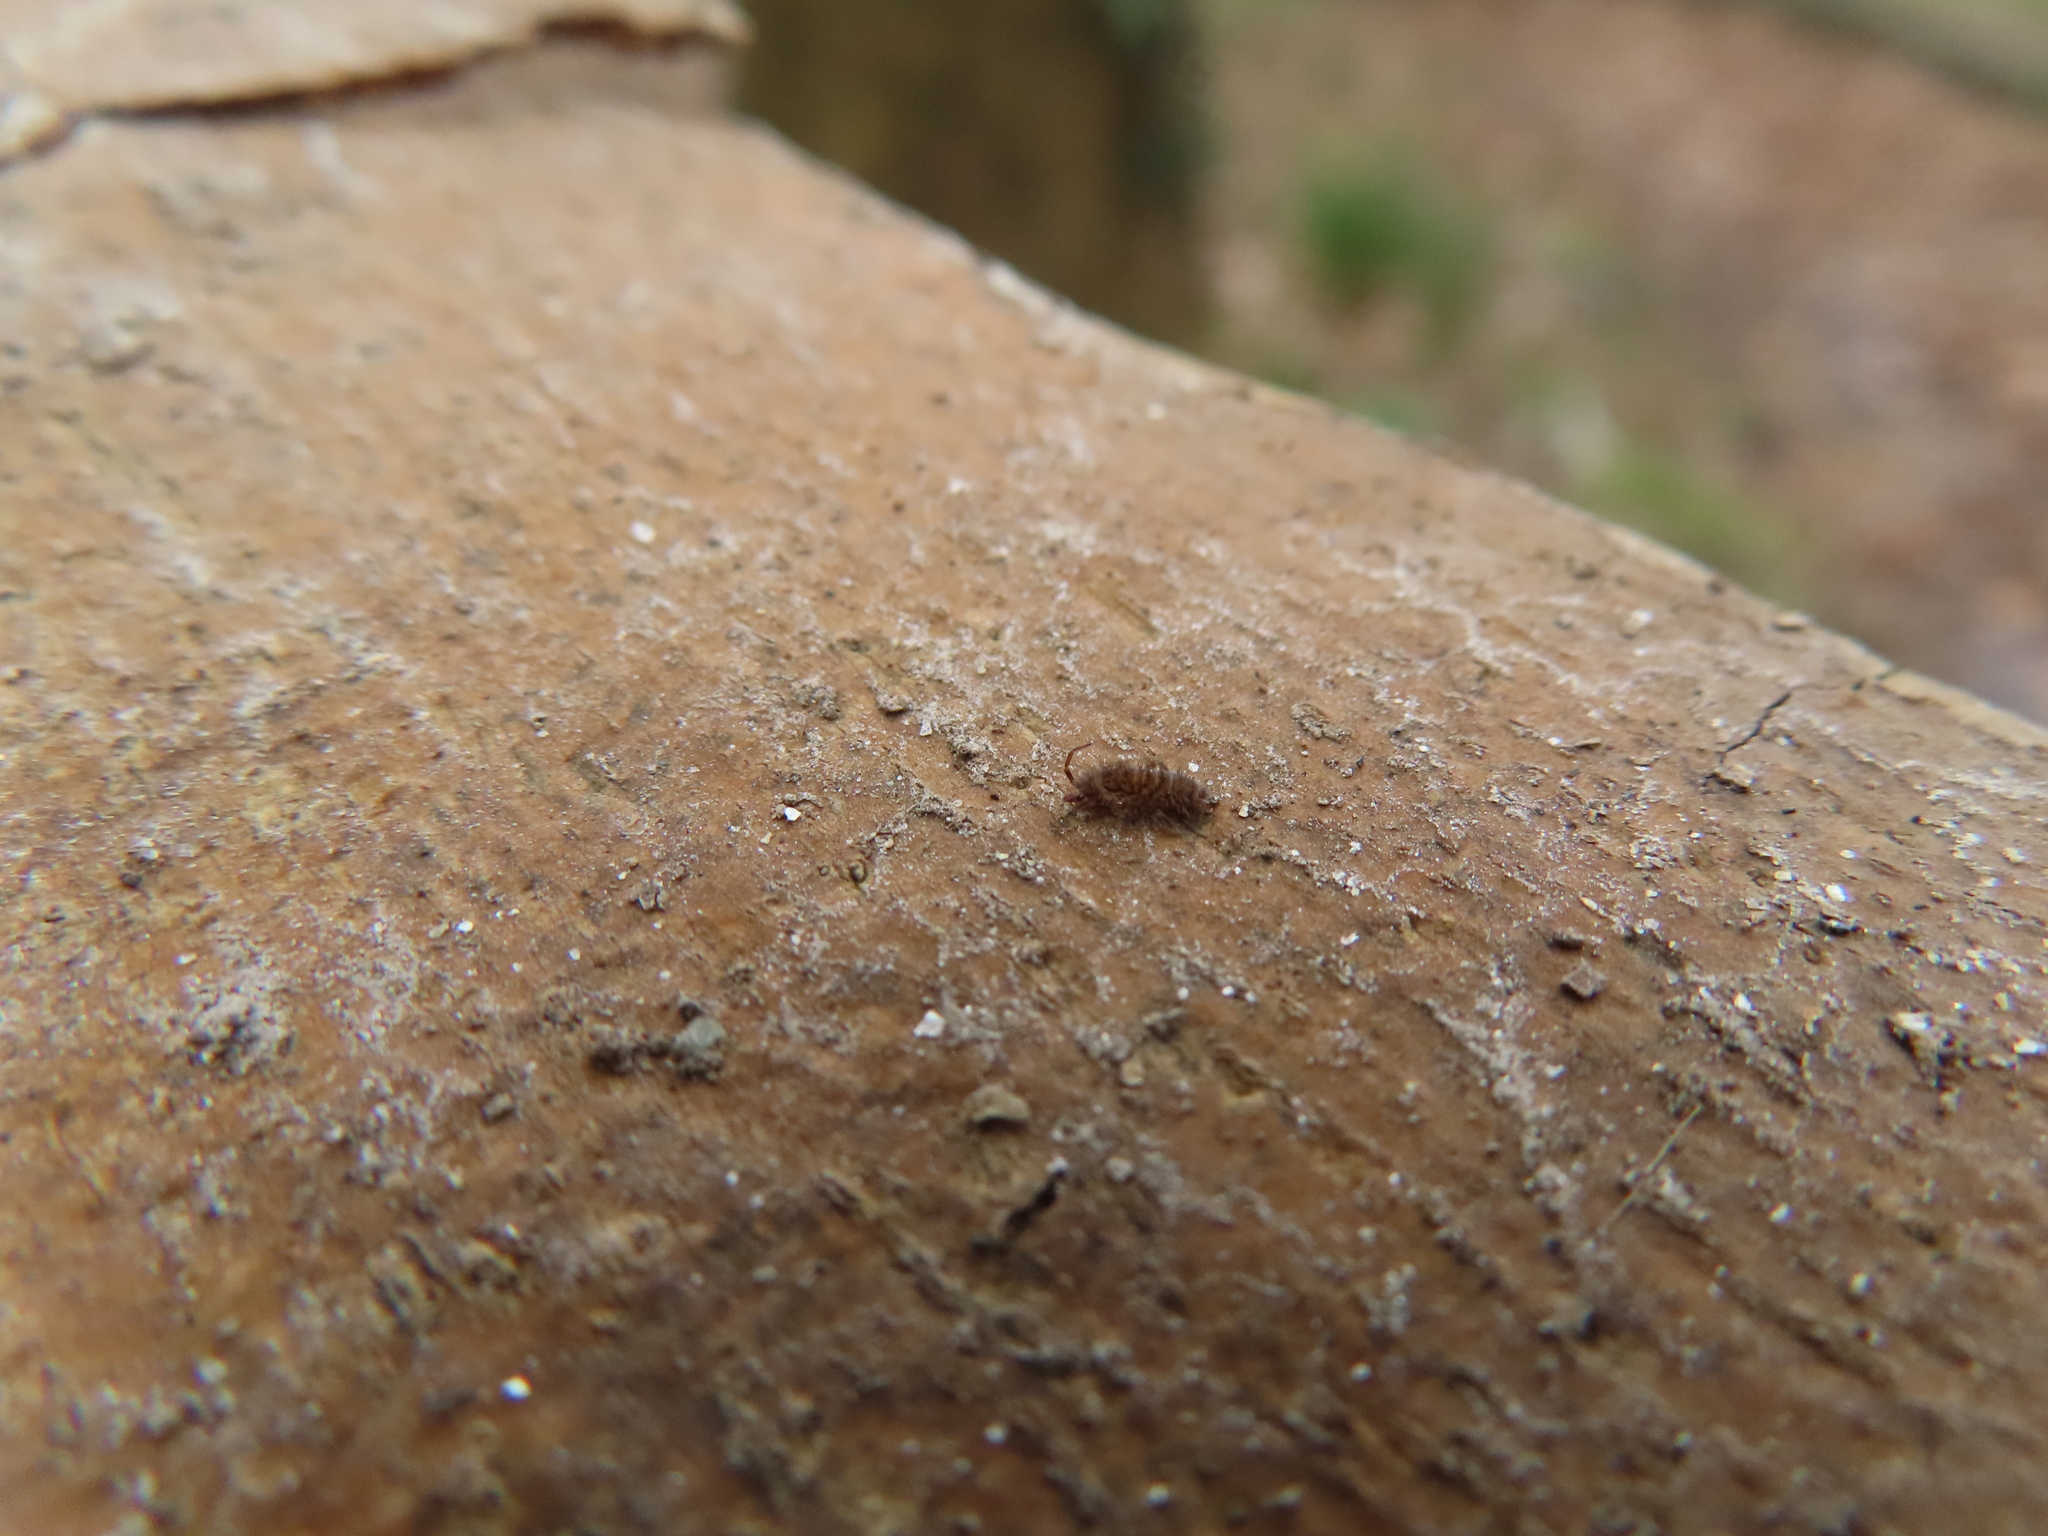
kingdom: Animalia
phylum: Arthropoda
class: Collembola
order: Entomobryomorpha
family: Orchesellidae
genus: Orchesella
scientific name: Orchesella villosa
